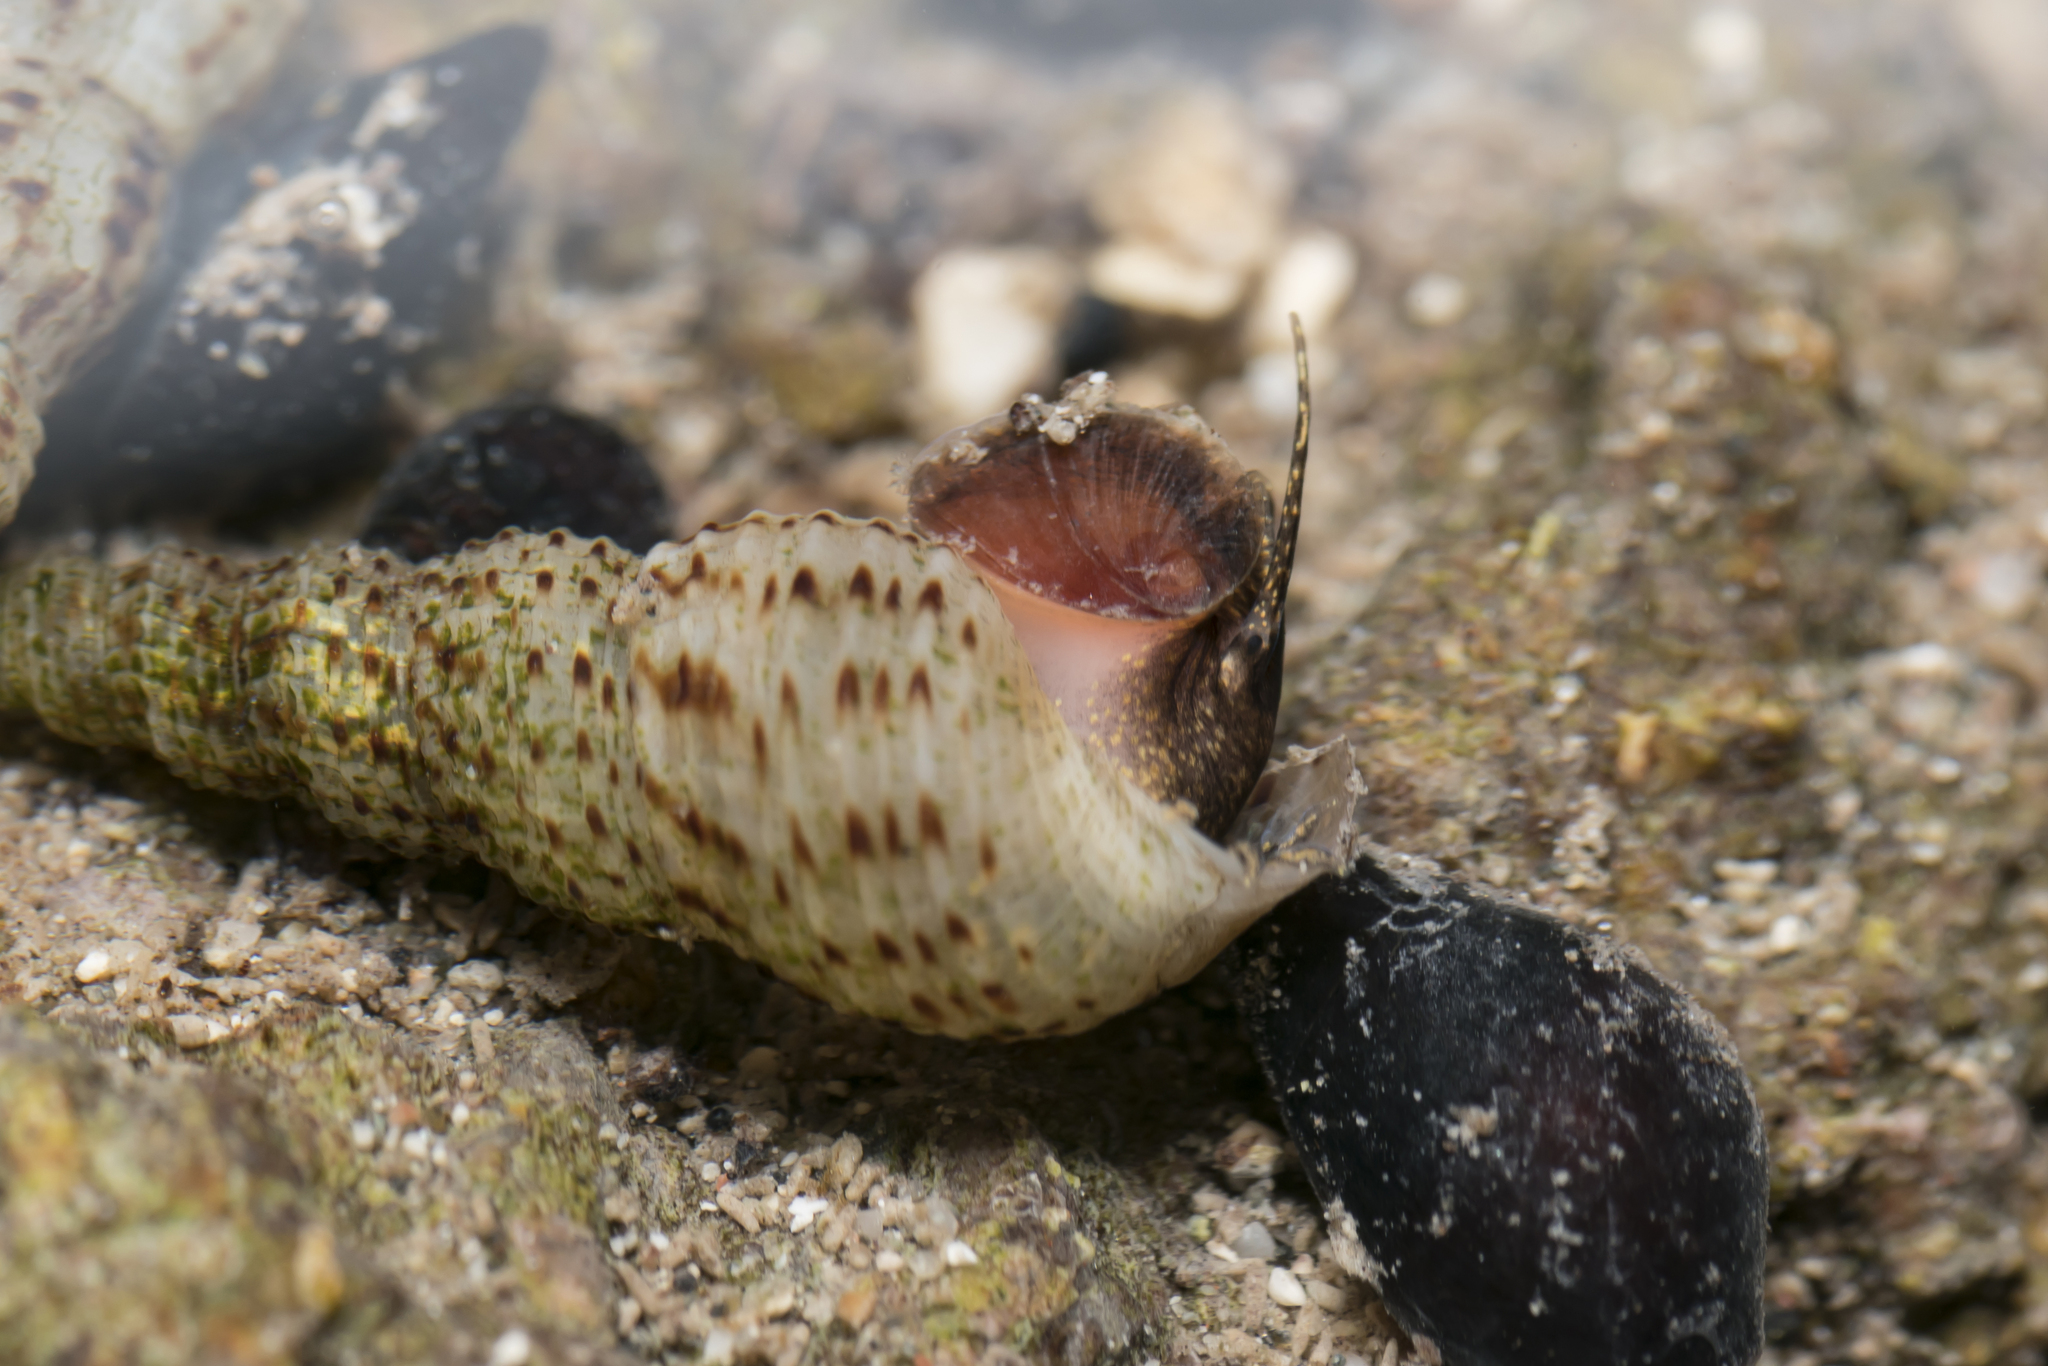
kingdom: Animalia
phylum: Mollusca
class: Gastropoda
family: Thiaridae
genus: Melanoides
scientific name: Melanoides tuberculata
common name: Red-rim melania
